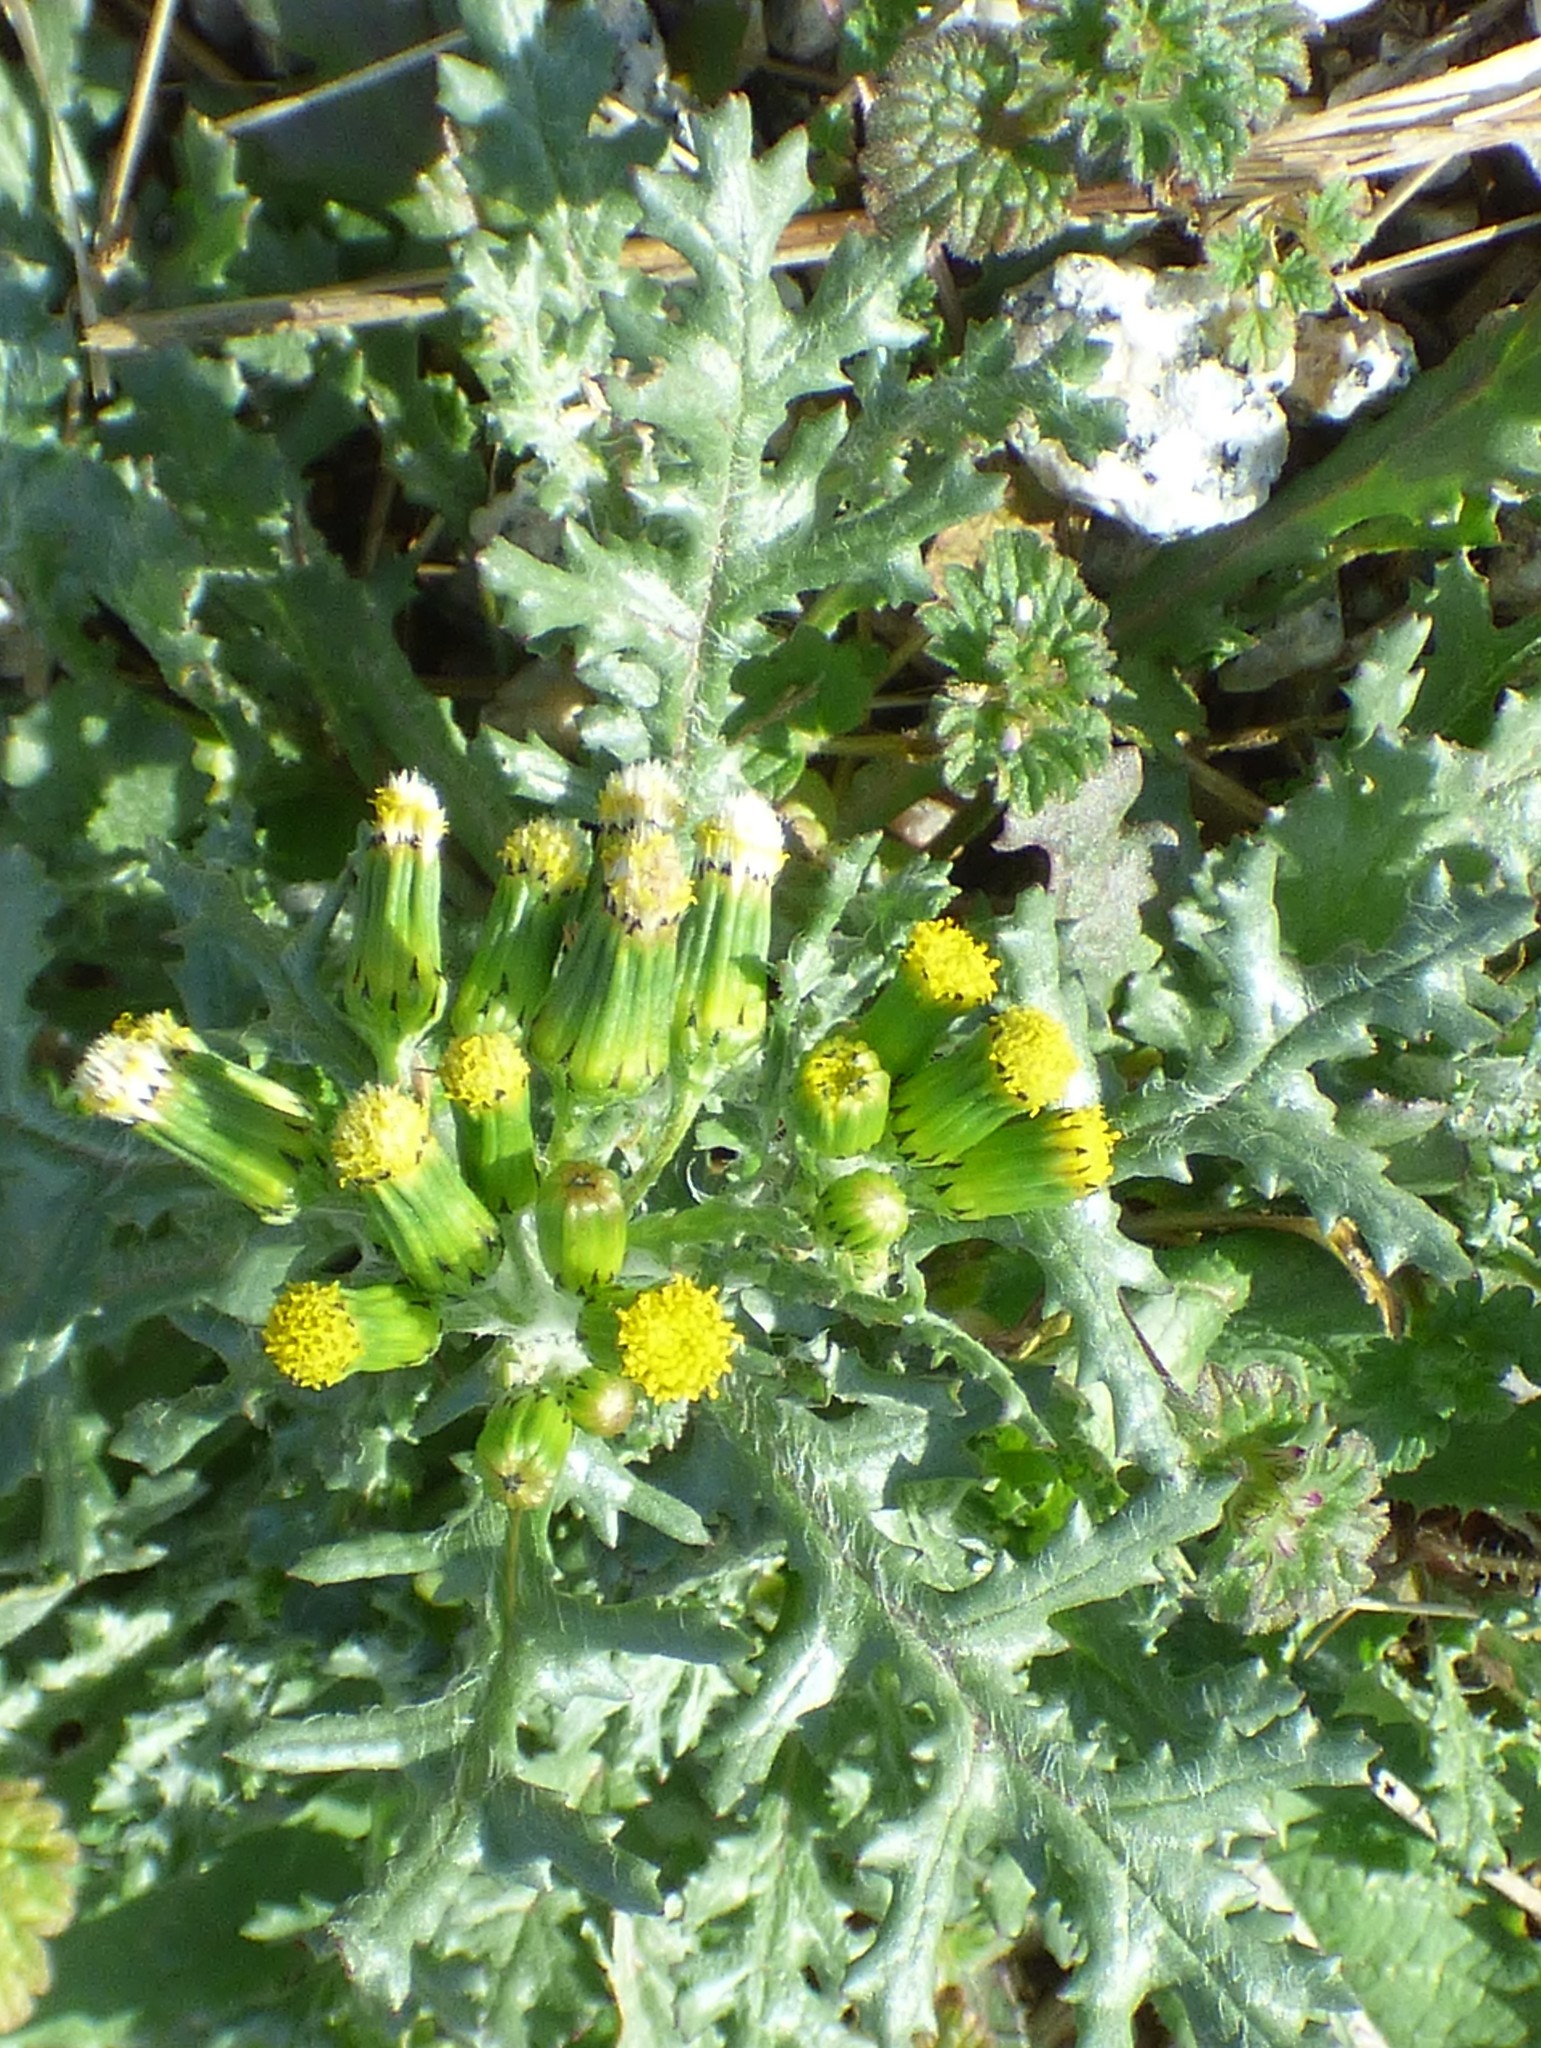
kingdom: Plantae
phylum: Tracheophyta
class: Magnoliopsida
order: Asterales
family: Asteraceae
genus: Senecio
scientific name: Senecio vulgaris
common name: Old-man-in-the-spring
